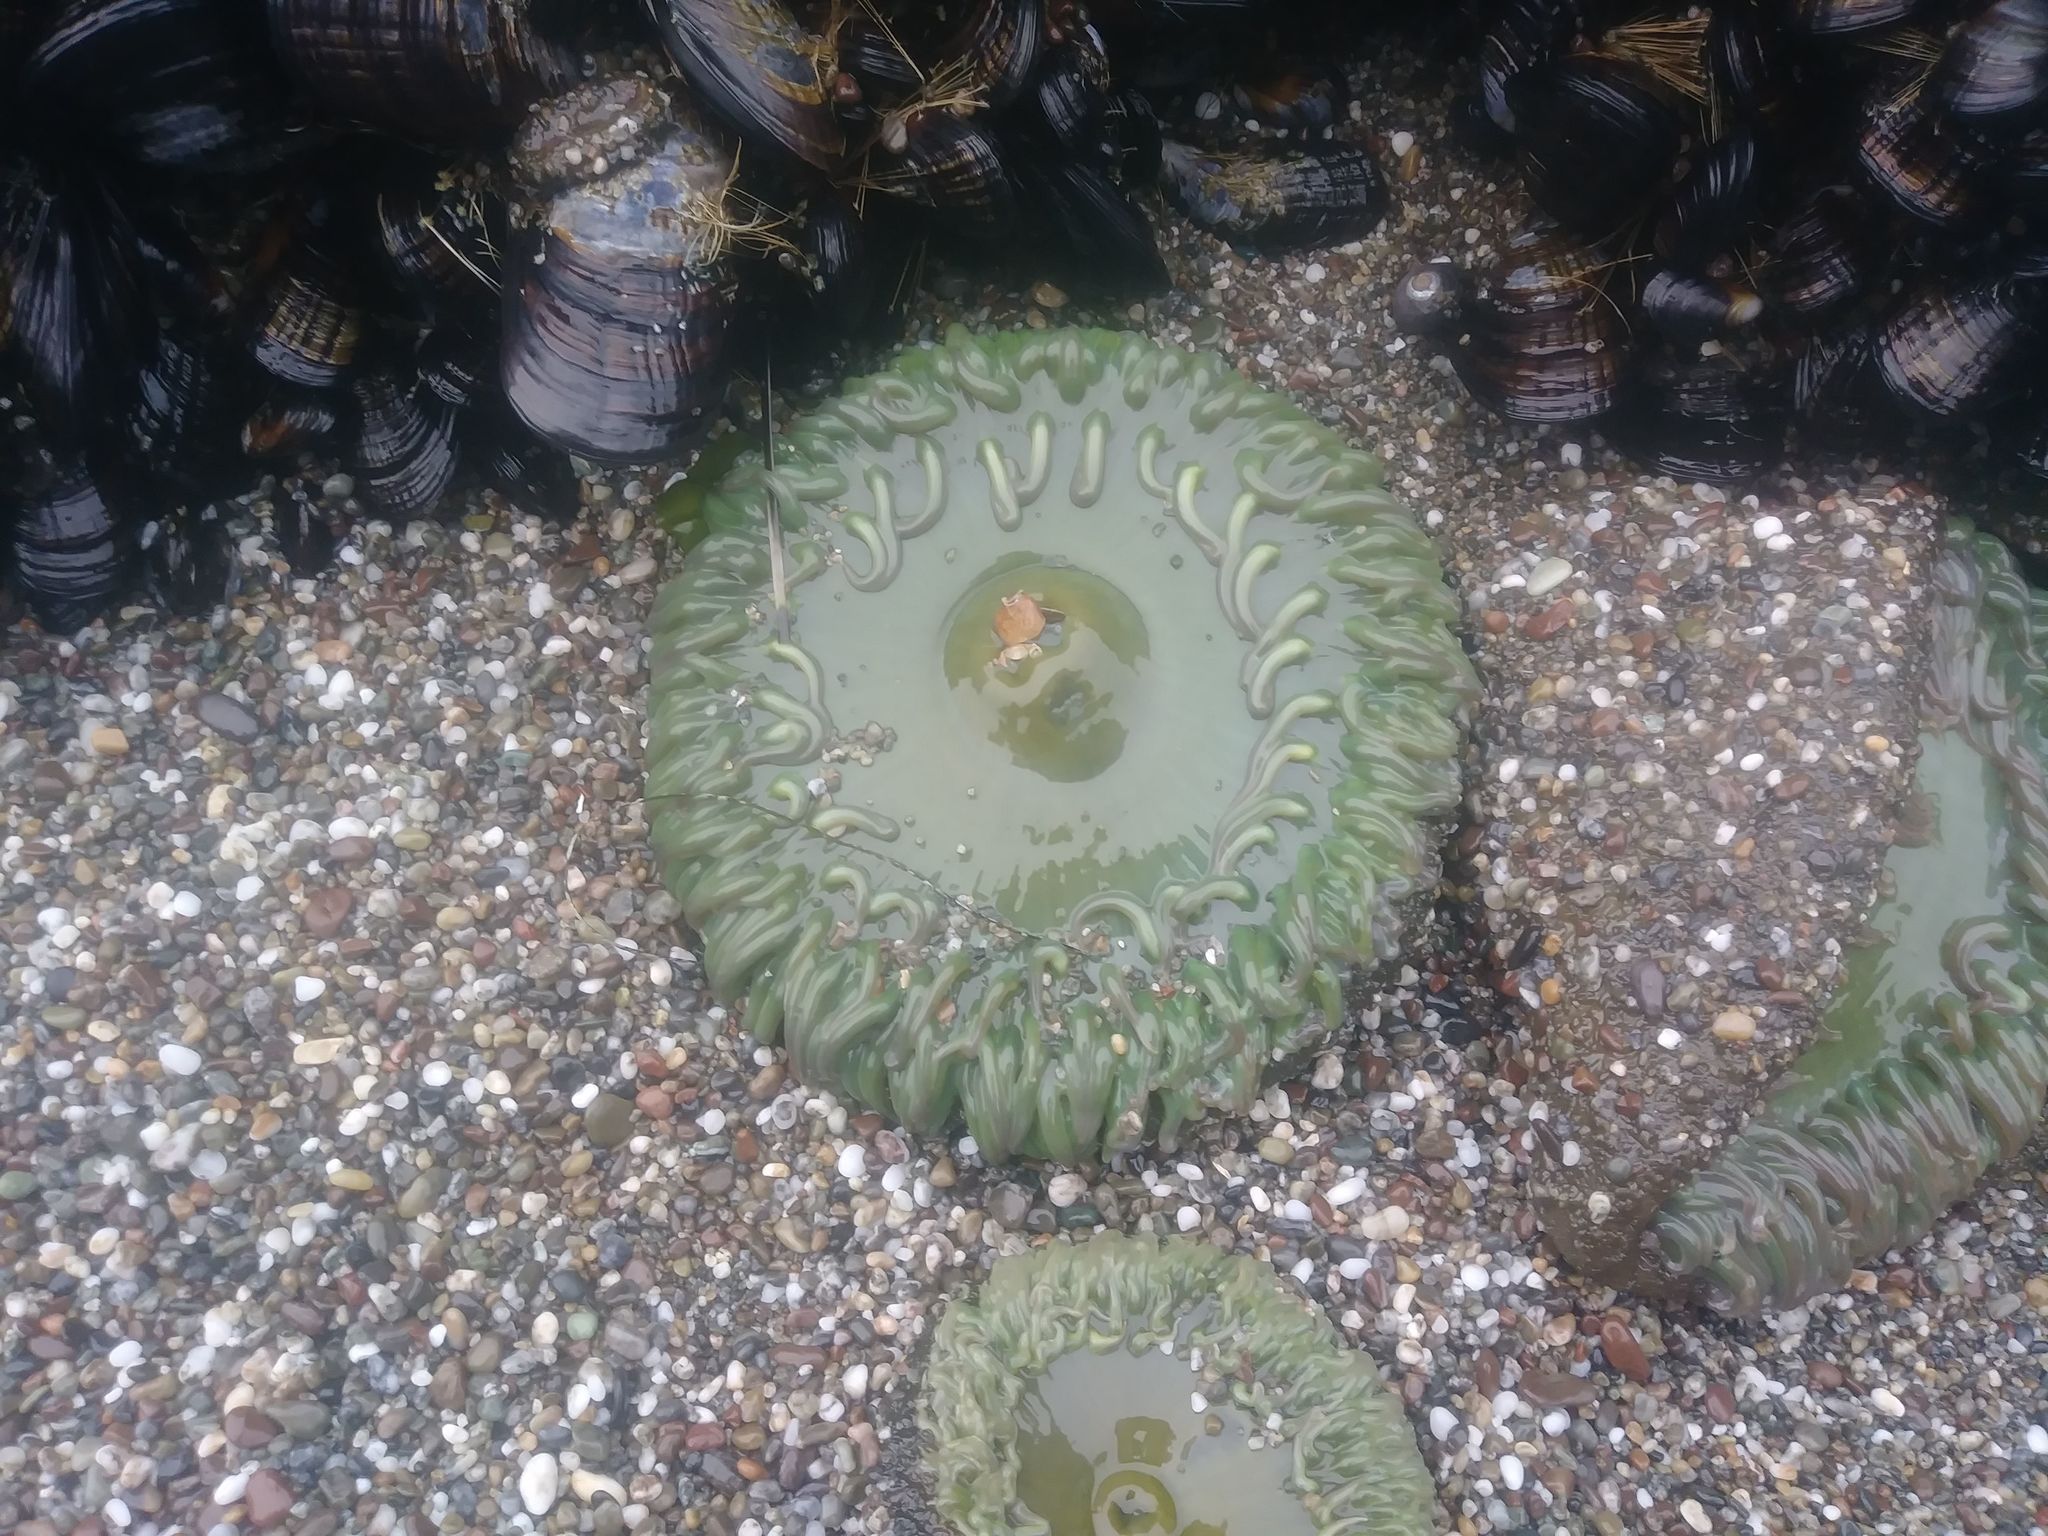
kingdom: Animalia
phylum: Cnidaria
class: Anthozoa
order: Actiniaria
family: Actiniidae
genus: Anthopleura
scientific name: Anthopleura xanthogrammica
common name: Giant green anemone
